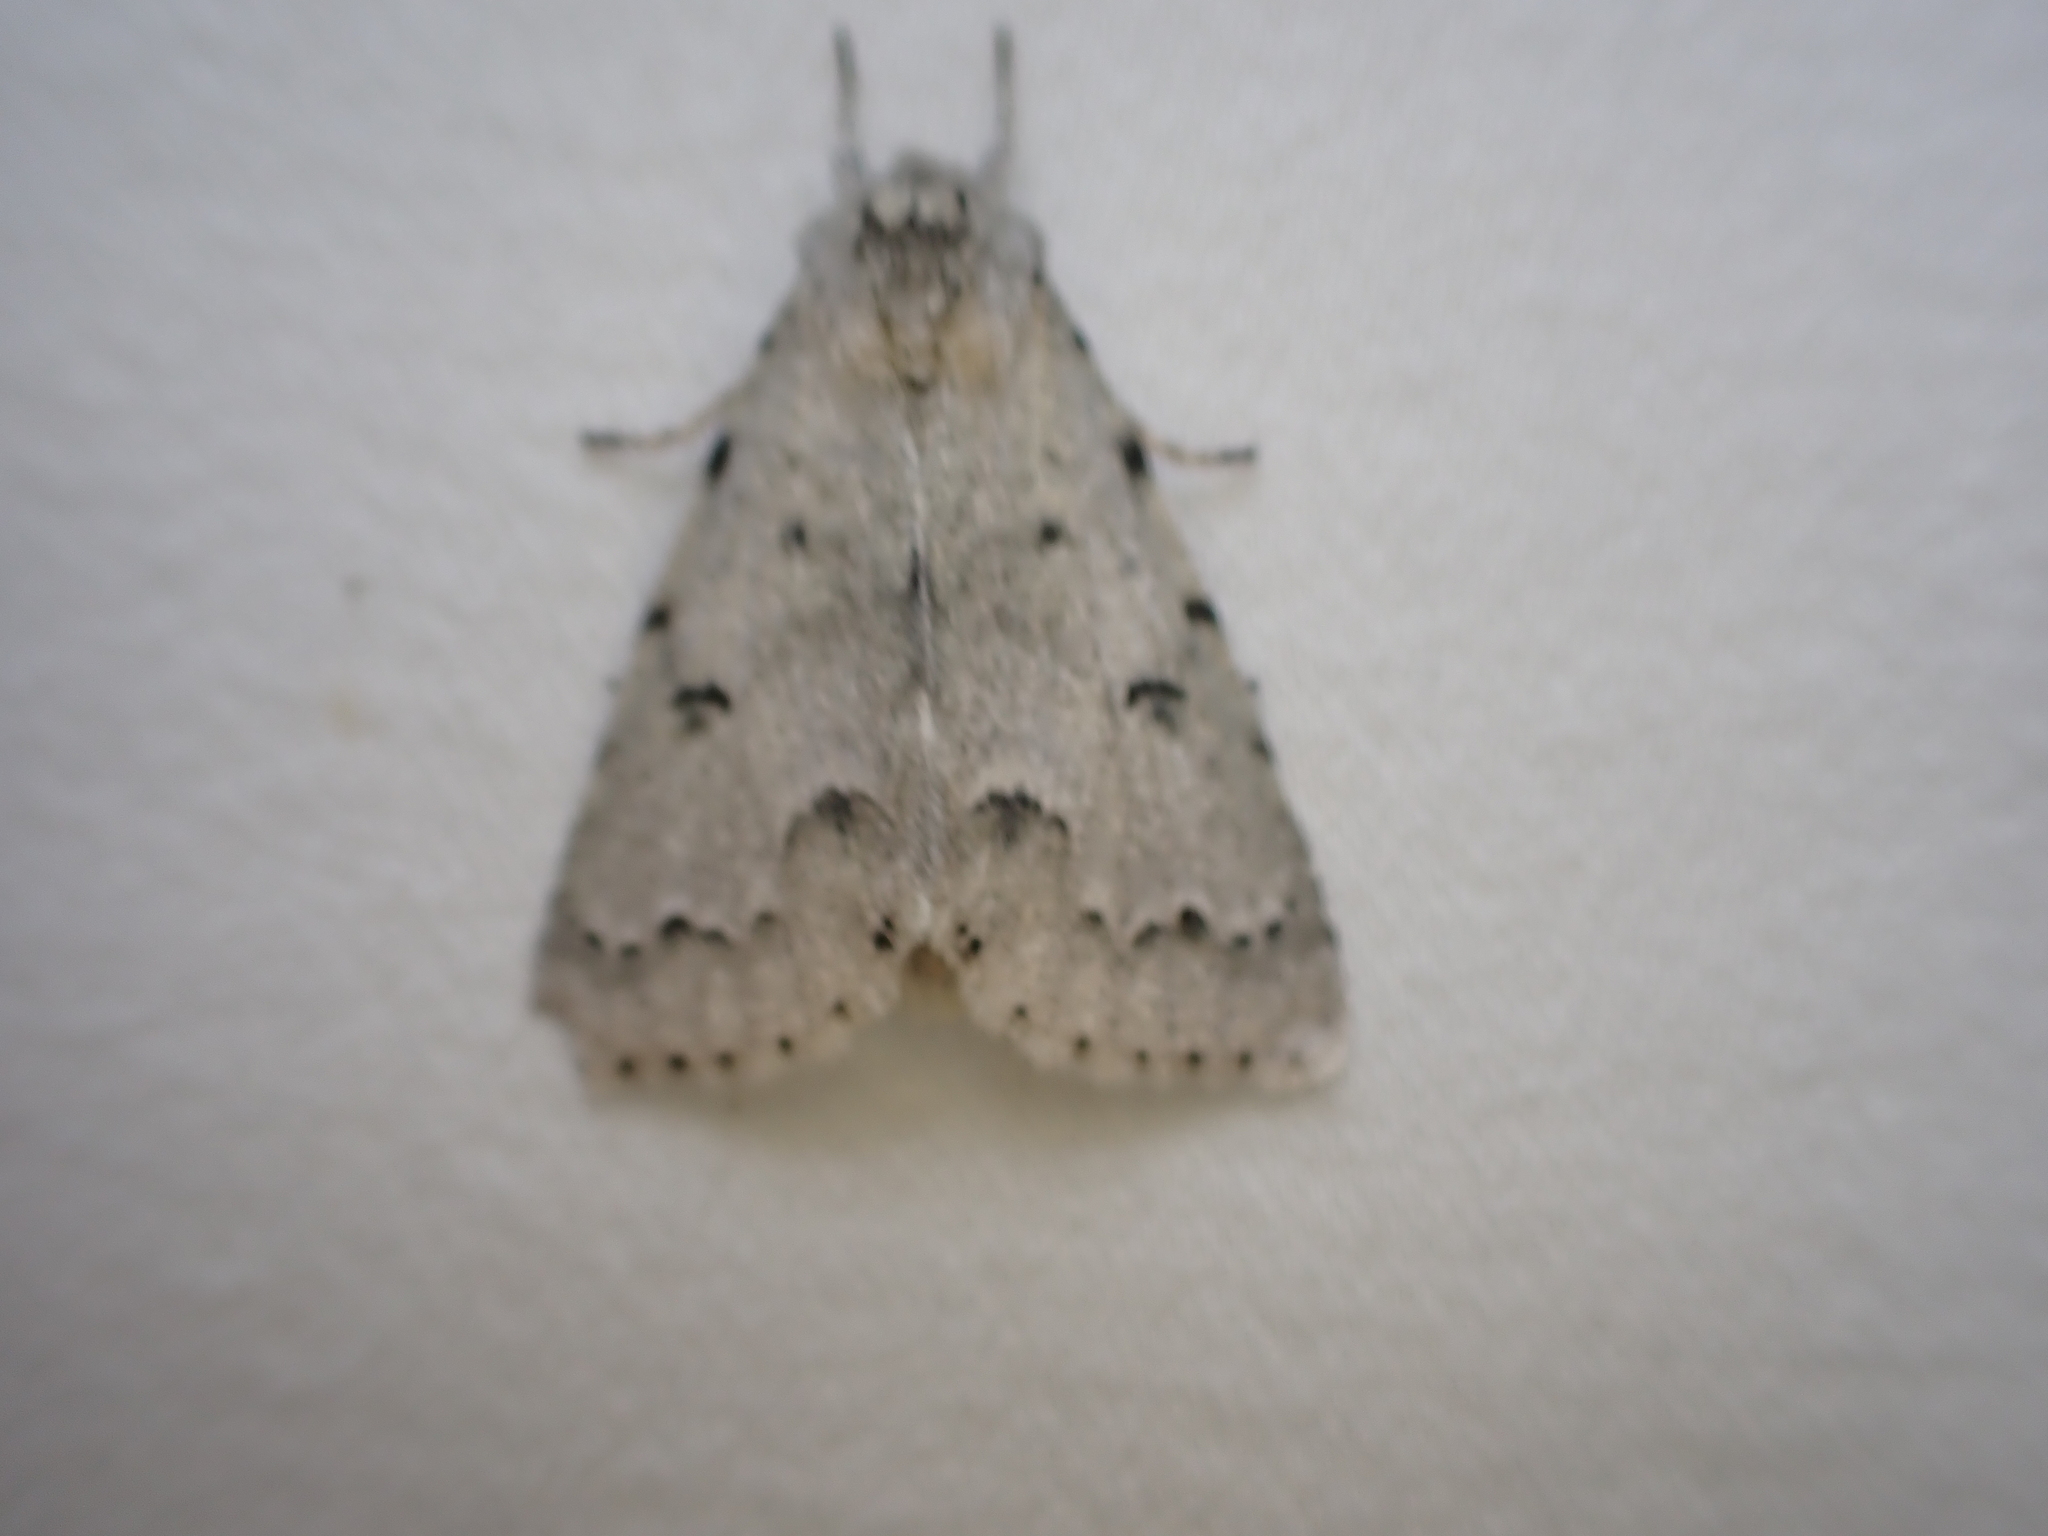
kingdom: Animalia
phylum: Arthropoda
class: Insecta
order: Lepidoptera
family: Noctuidae
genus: Acronicta
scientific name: Acronicta innotata
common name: Unmarked dagger
